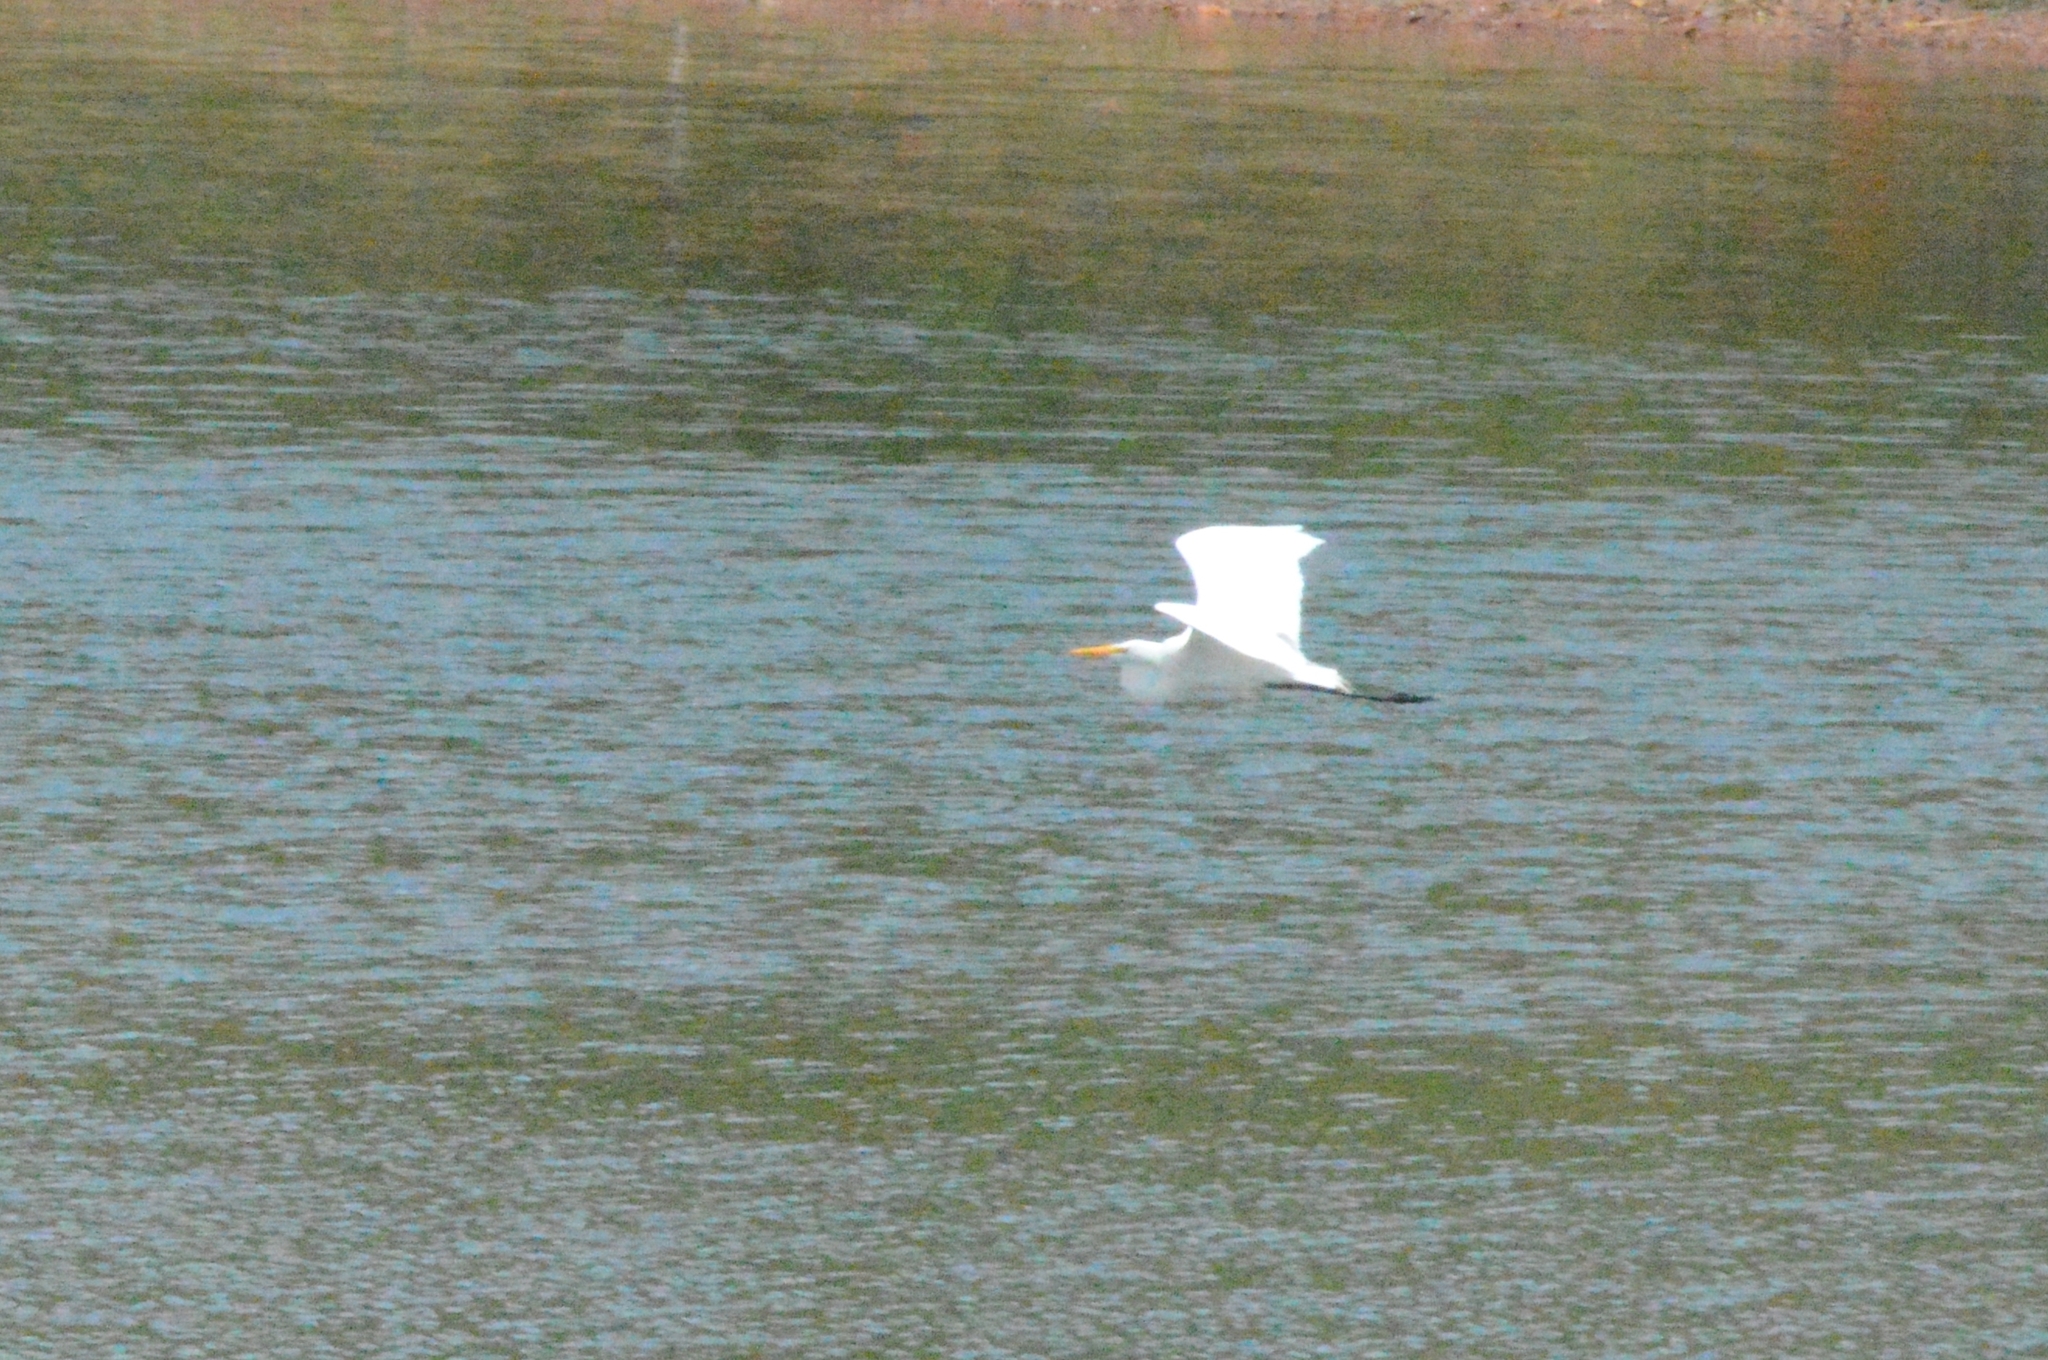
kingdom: Animalia
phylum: Chordata
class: Aves
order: Pelecaniformes
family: Ardeidae
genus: Ardea
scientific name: Ardea alba
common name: Great egret
